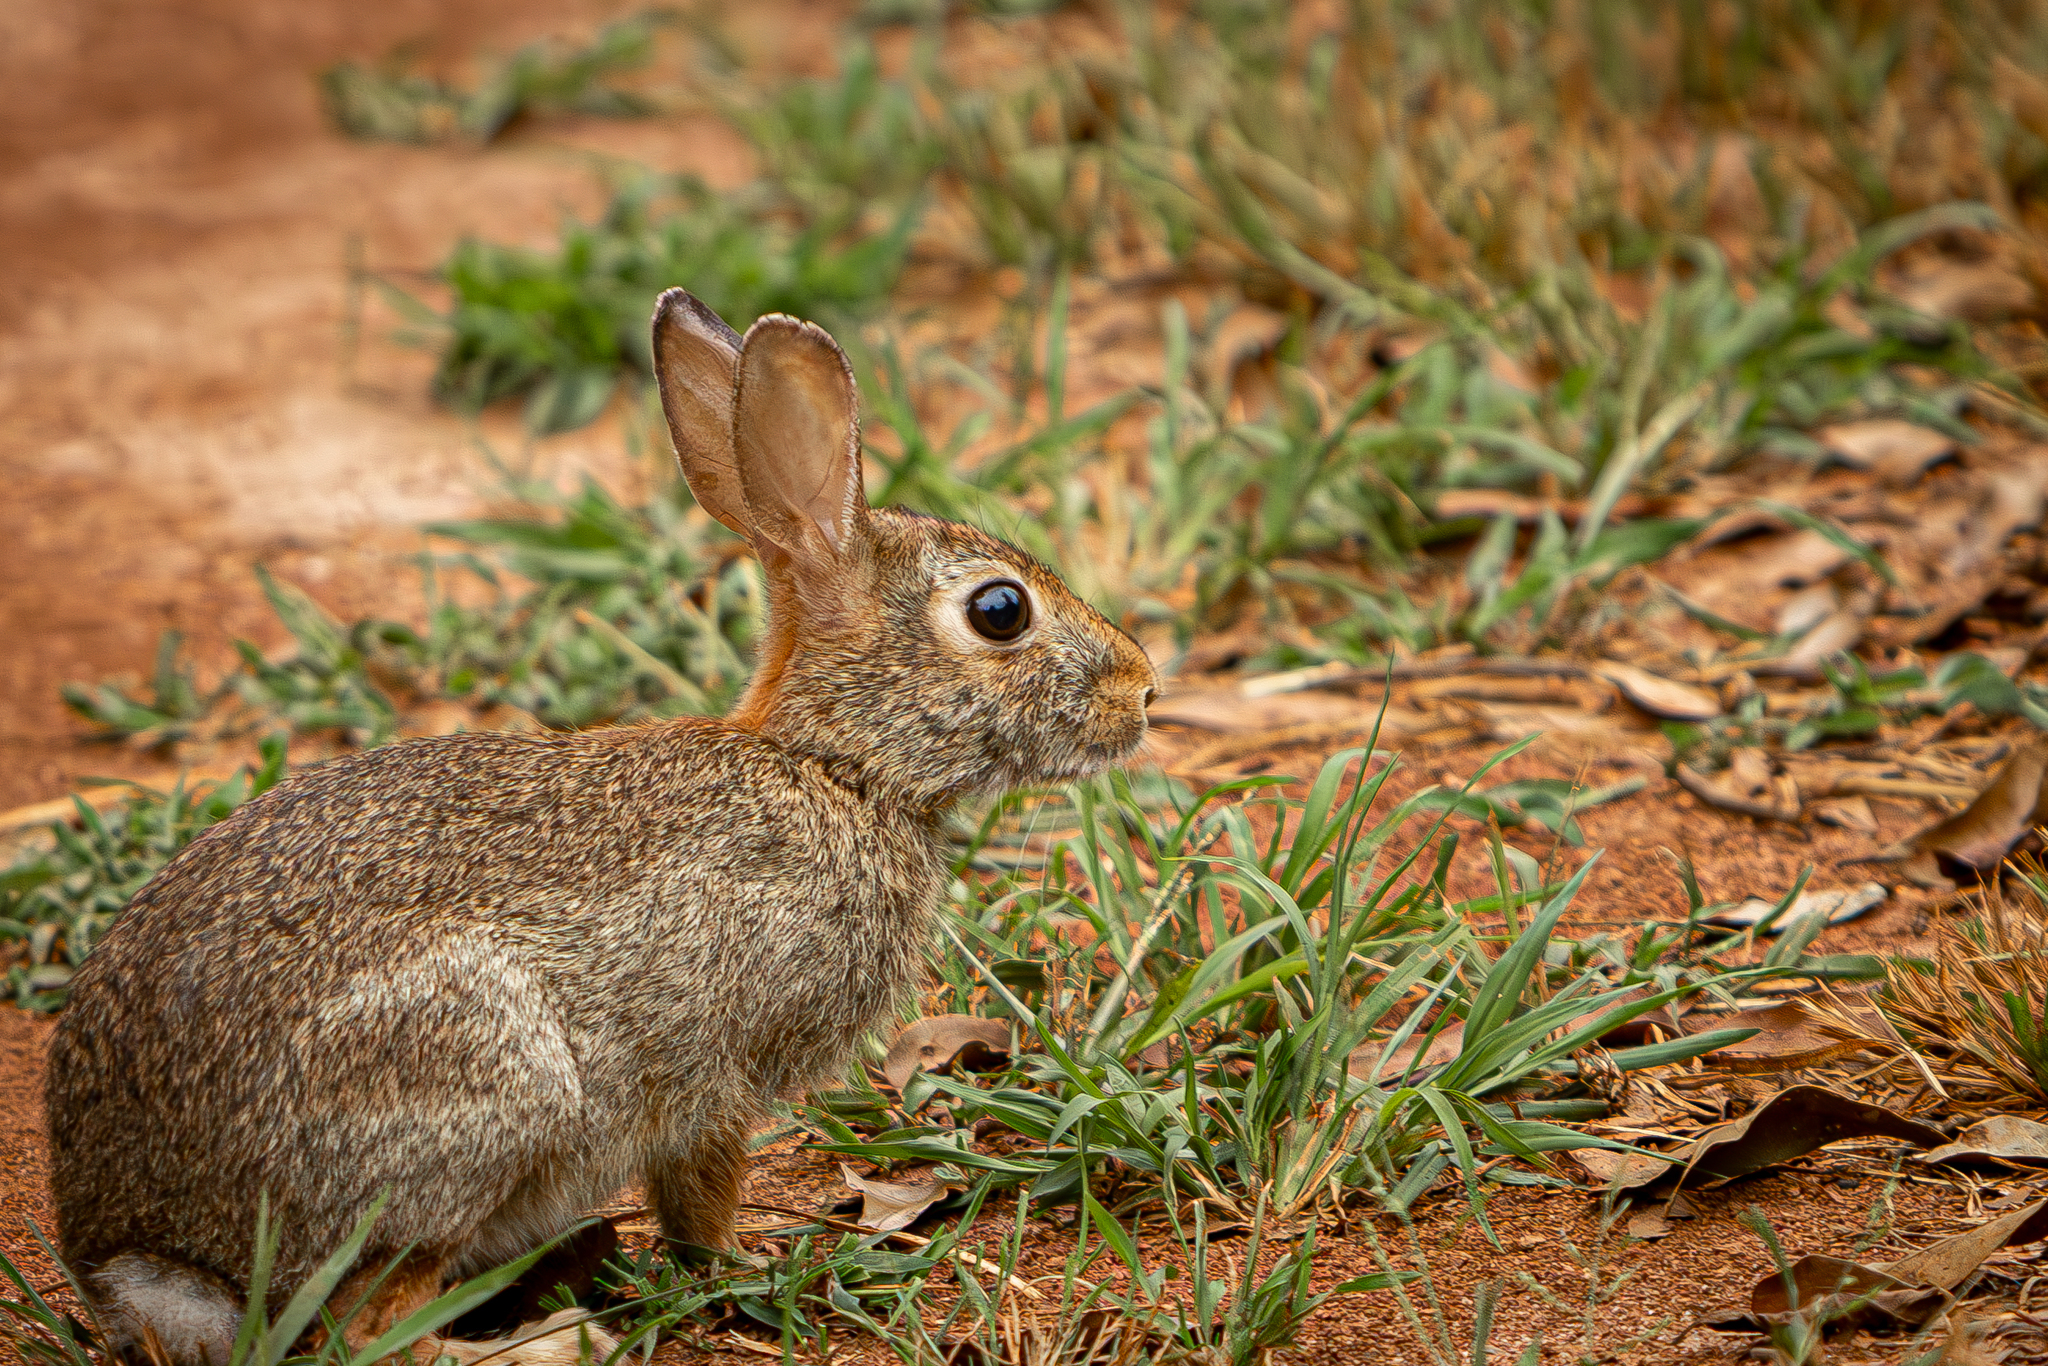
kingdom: Animalia
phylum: Chordata
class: Mammalia
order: Lagomorpha
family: Leporidae
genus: Sylvilagus
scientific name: Sylvilagus floridanus
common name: Eastern cottontail
